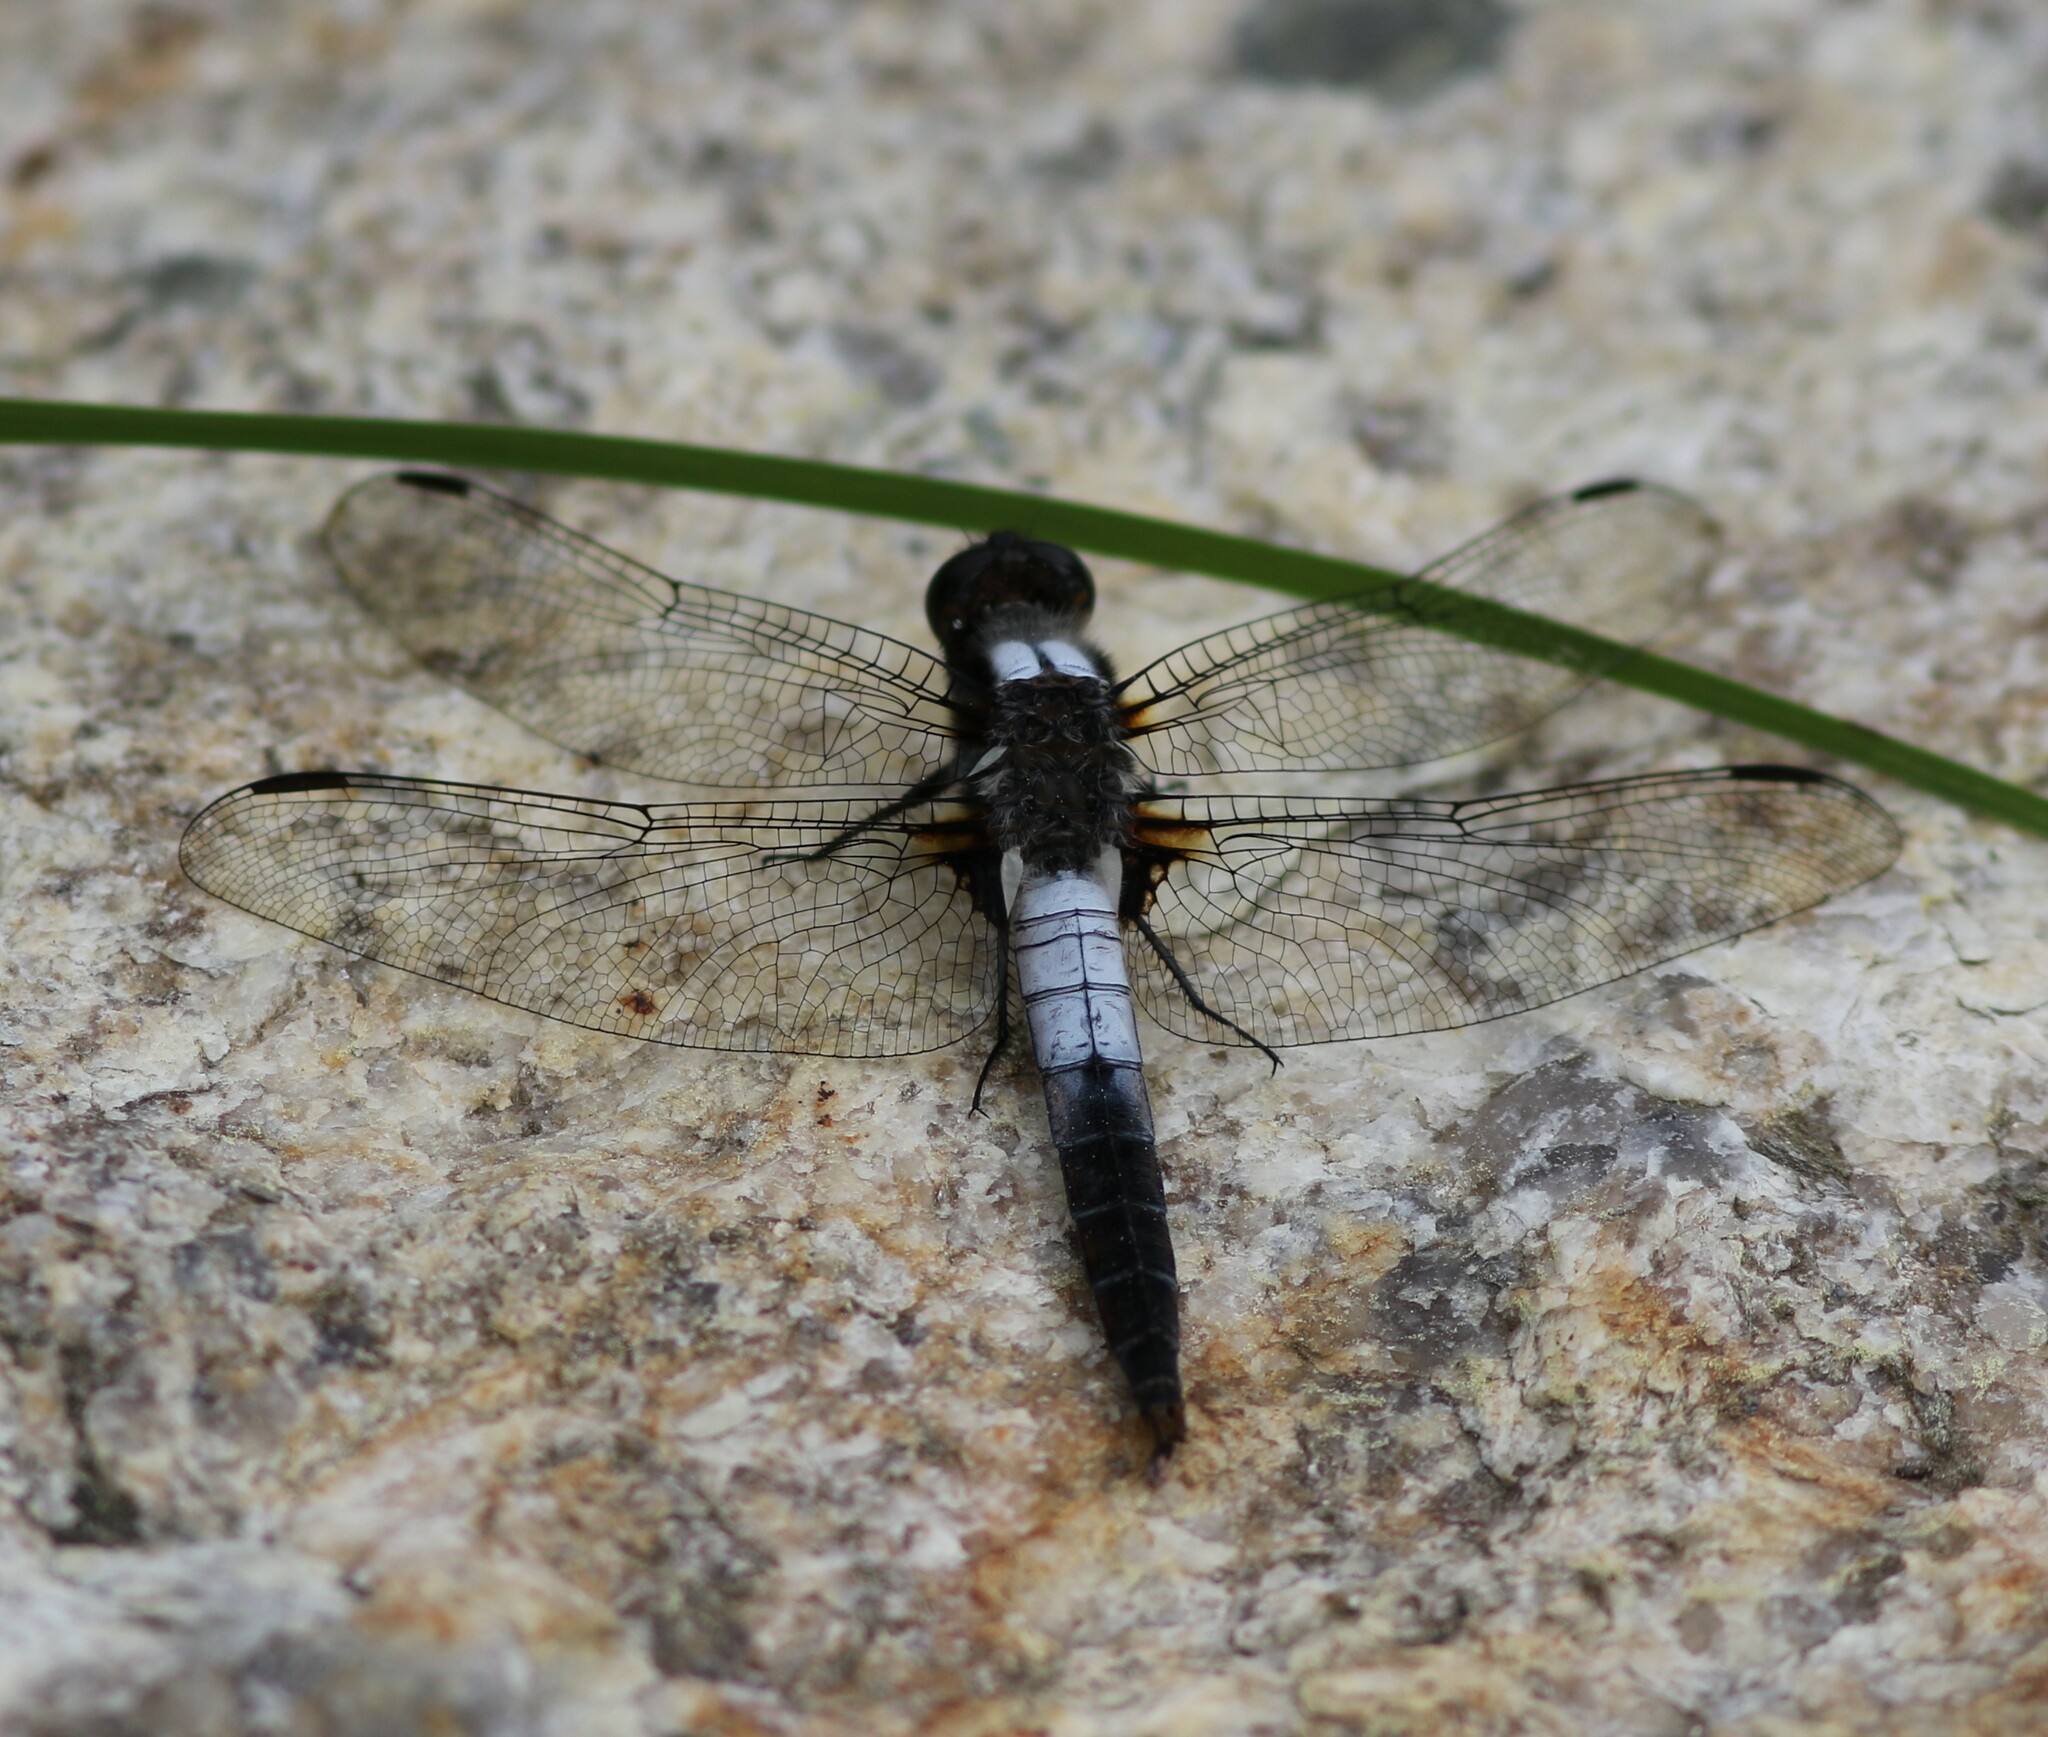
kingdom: Animalia
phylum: Arthropoda
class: Insecta
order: Odonata
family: Libellulidae
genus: Ladona
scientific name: Ladona julia
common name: Chalk-fronted corporal
